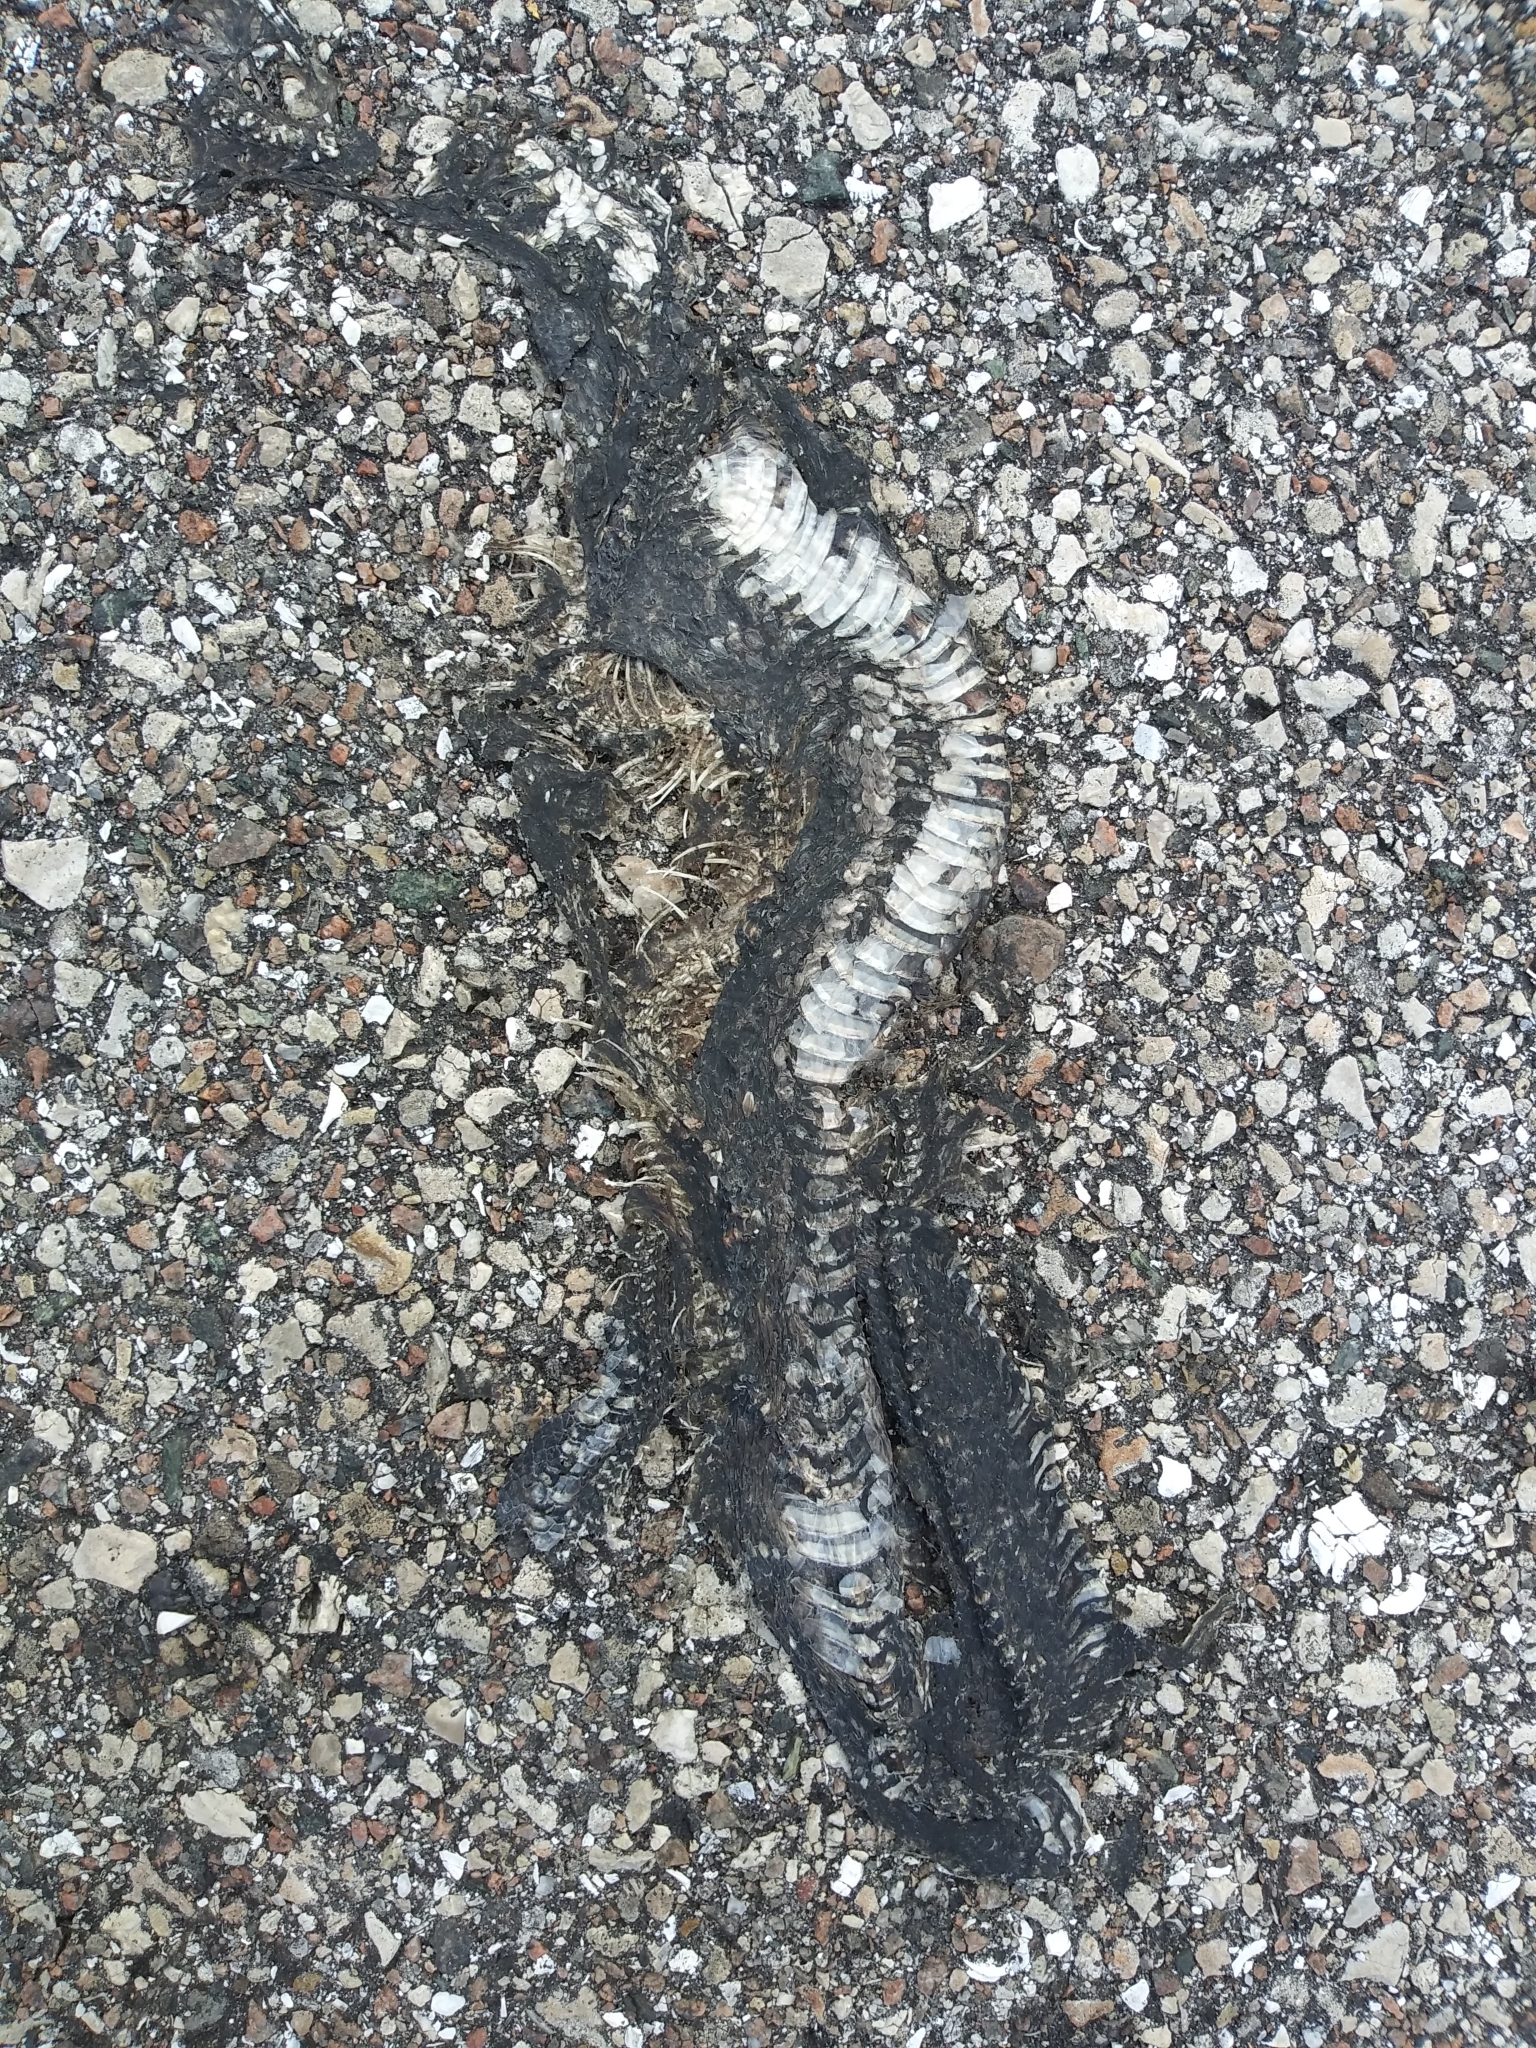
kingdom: Animalia
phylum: Chordata
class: Squamata
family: Colubridae
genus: Nerodia
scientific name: Nerodia fasciata
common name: Southern water snake
